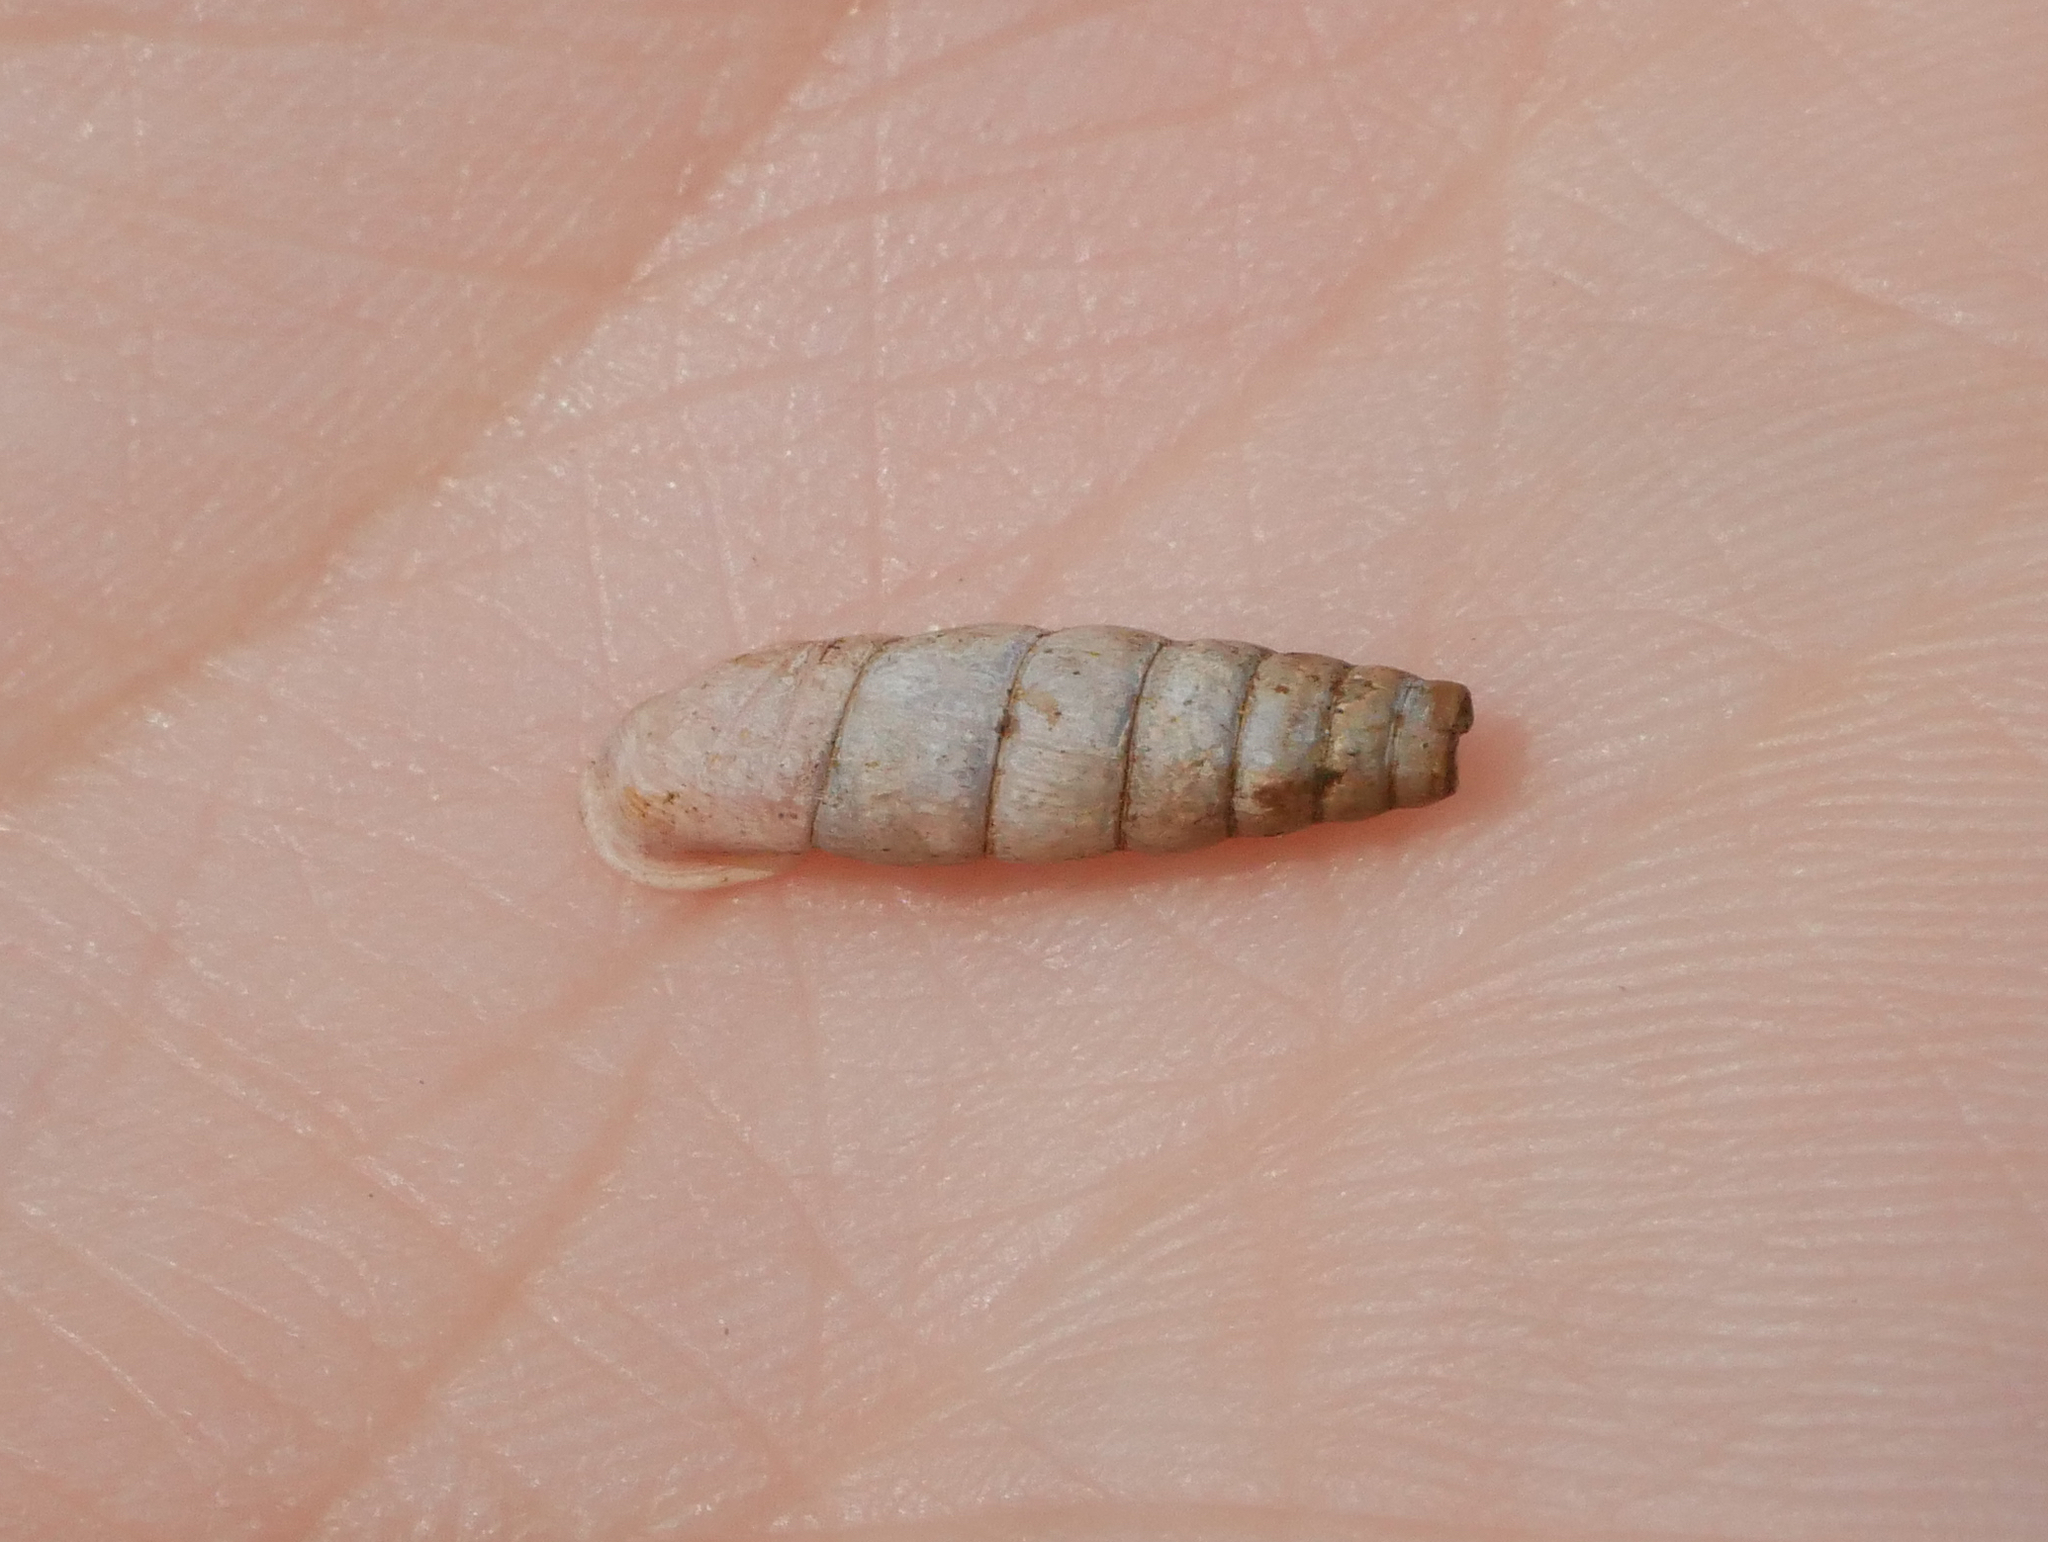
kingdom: Animalia
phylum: Mollusca
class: Gastropoda
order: Stylommatophora
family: Clausiliidae
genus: Alinda
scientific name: Alinda biplicata
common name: Thames door snail
